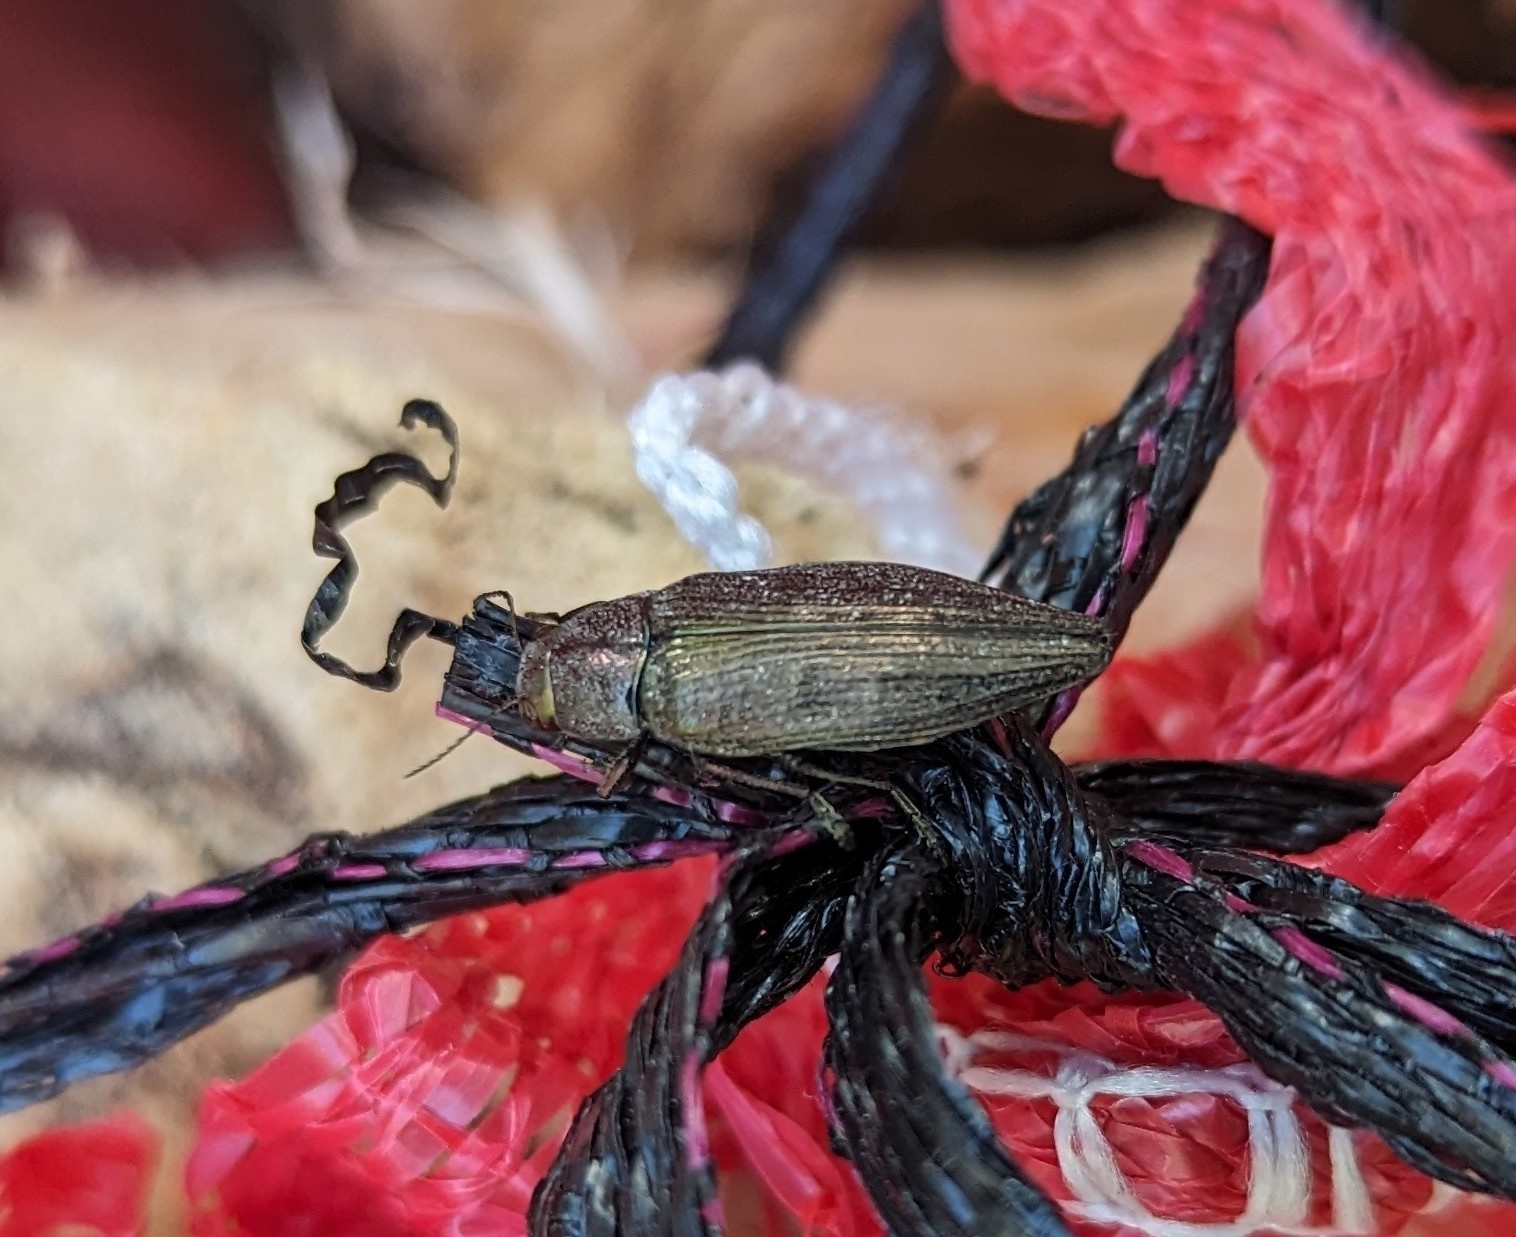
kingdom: Animalia
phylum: Arthropoda
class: Insecta
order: Coleoptera
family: Buprestidae
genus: Buprestis
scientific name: Buprestis maculativentris
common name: Spotted-belly buprestid beetle
